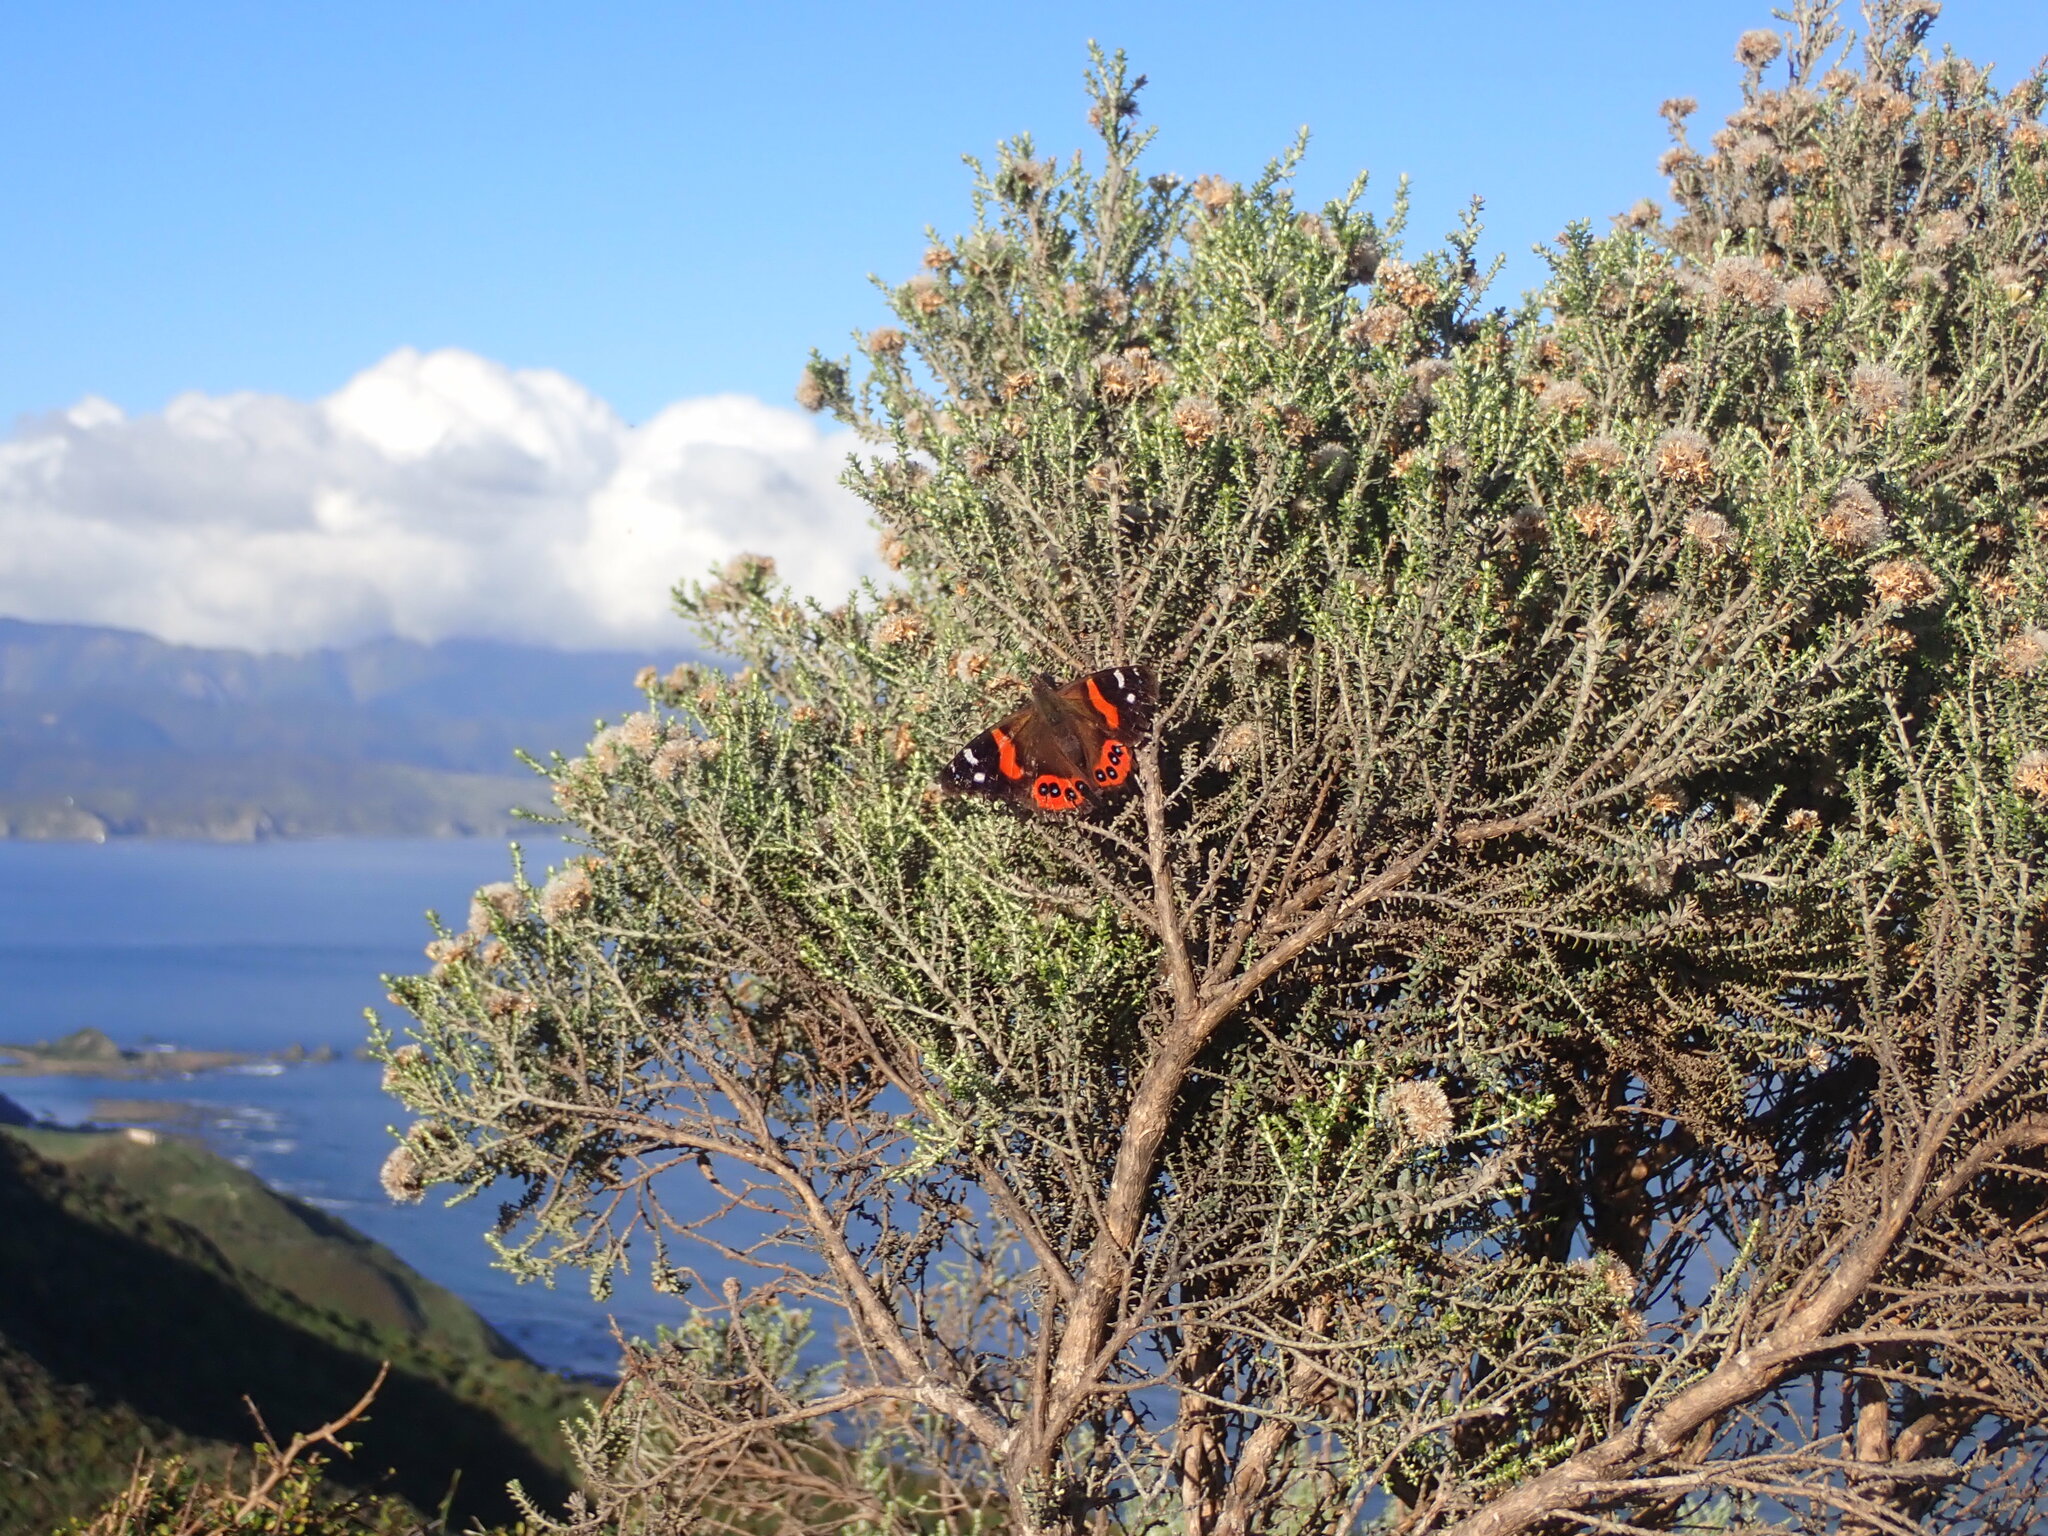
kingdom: Animalia
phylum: Arthropoda
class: Insecta
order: Lepidoptera
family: Nymphalidae
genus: Vanessa
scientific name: Vanessa gonerilla
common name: New zealand red admiral
